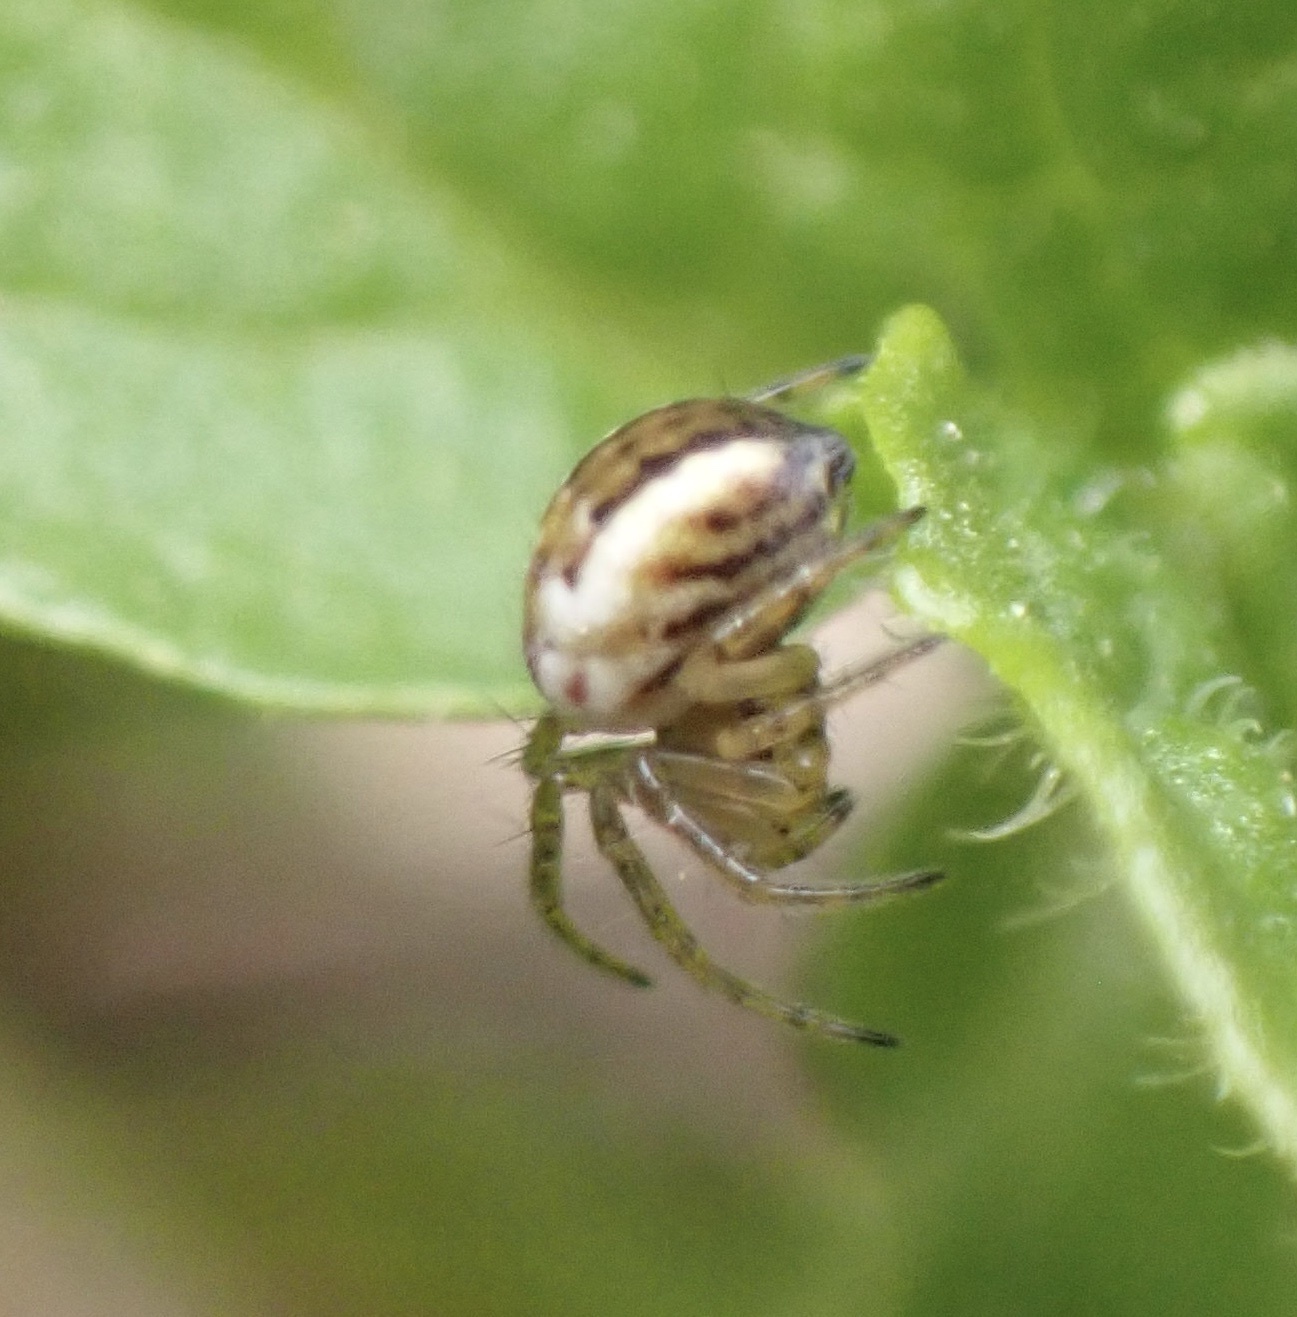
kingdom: Animalia
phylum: Arthropoda
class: Arachnida
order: Araneae
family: Araneidae
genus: Mangora
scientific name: Mangora acalypha
